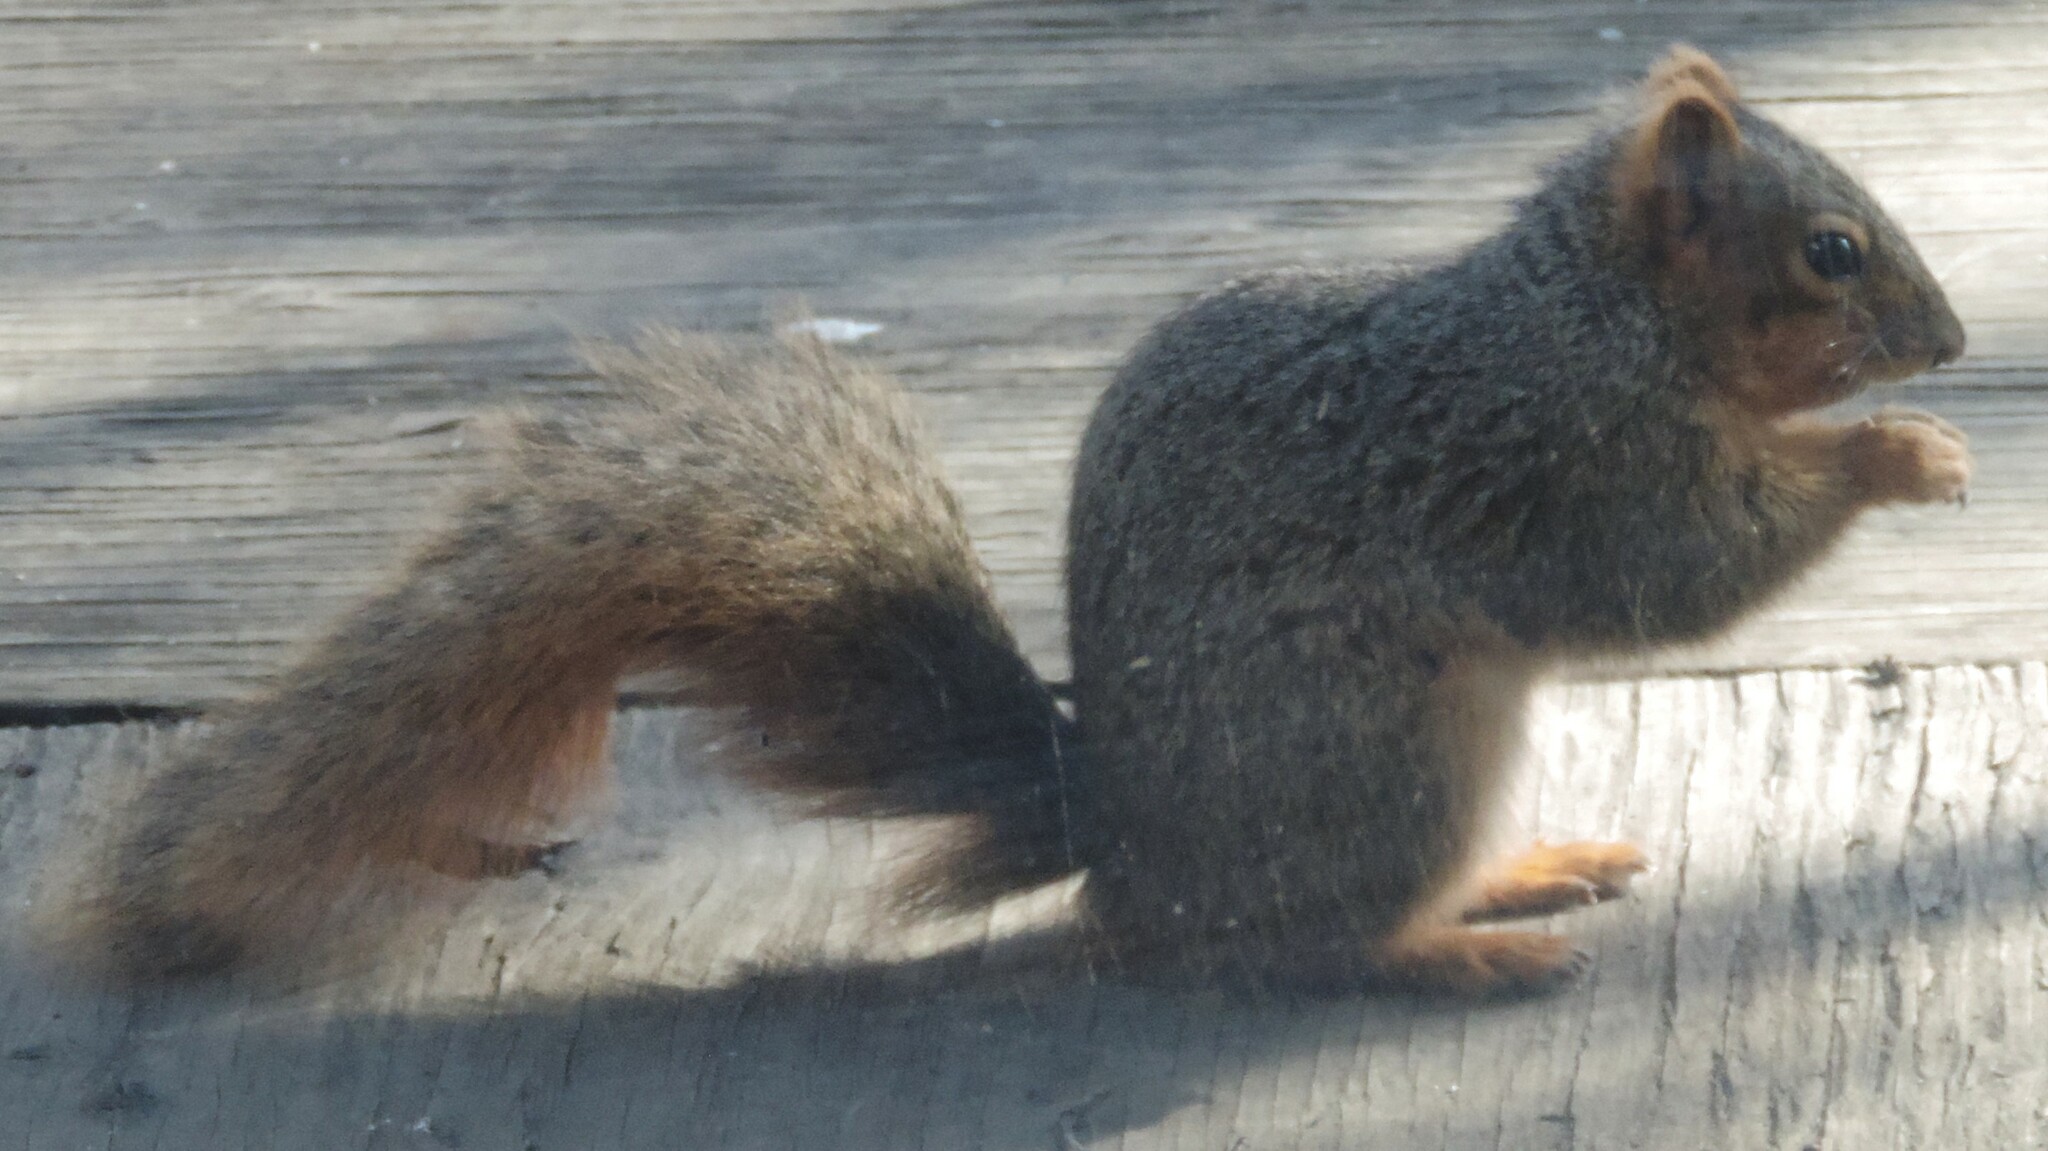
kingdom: Animalia
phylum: Chordata
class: Mammalia
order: Rodentia
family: Sciuridae
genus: Sciurus
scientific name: Sciurus niger
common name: Fox squirrel
